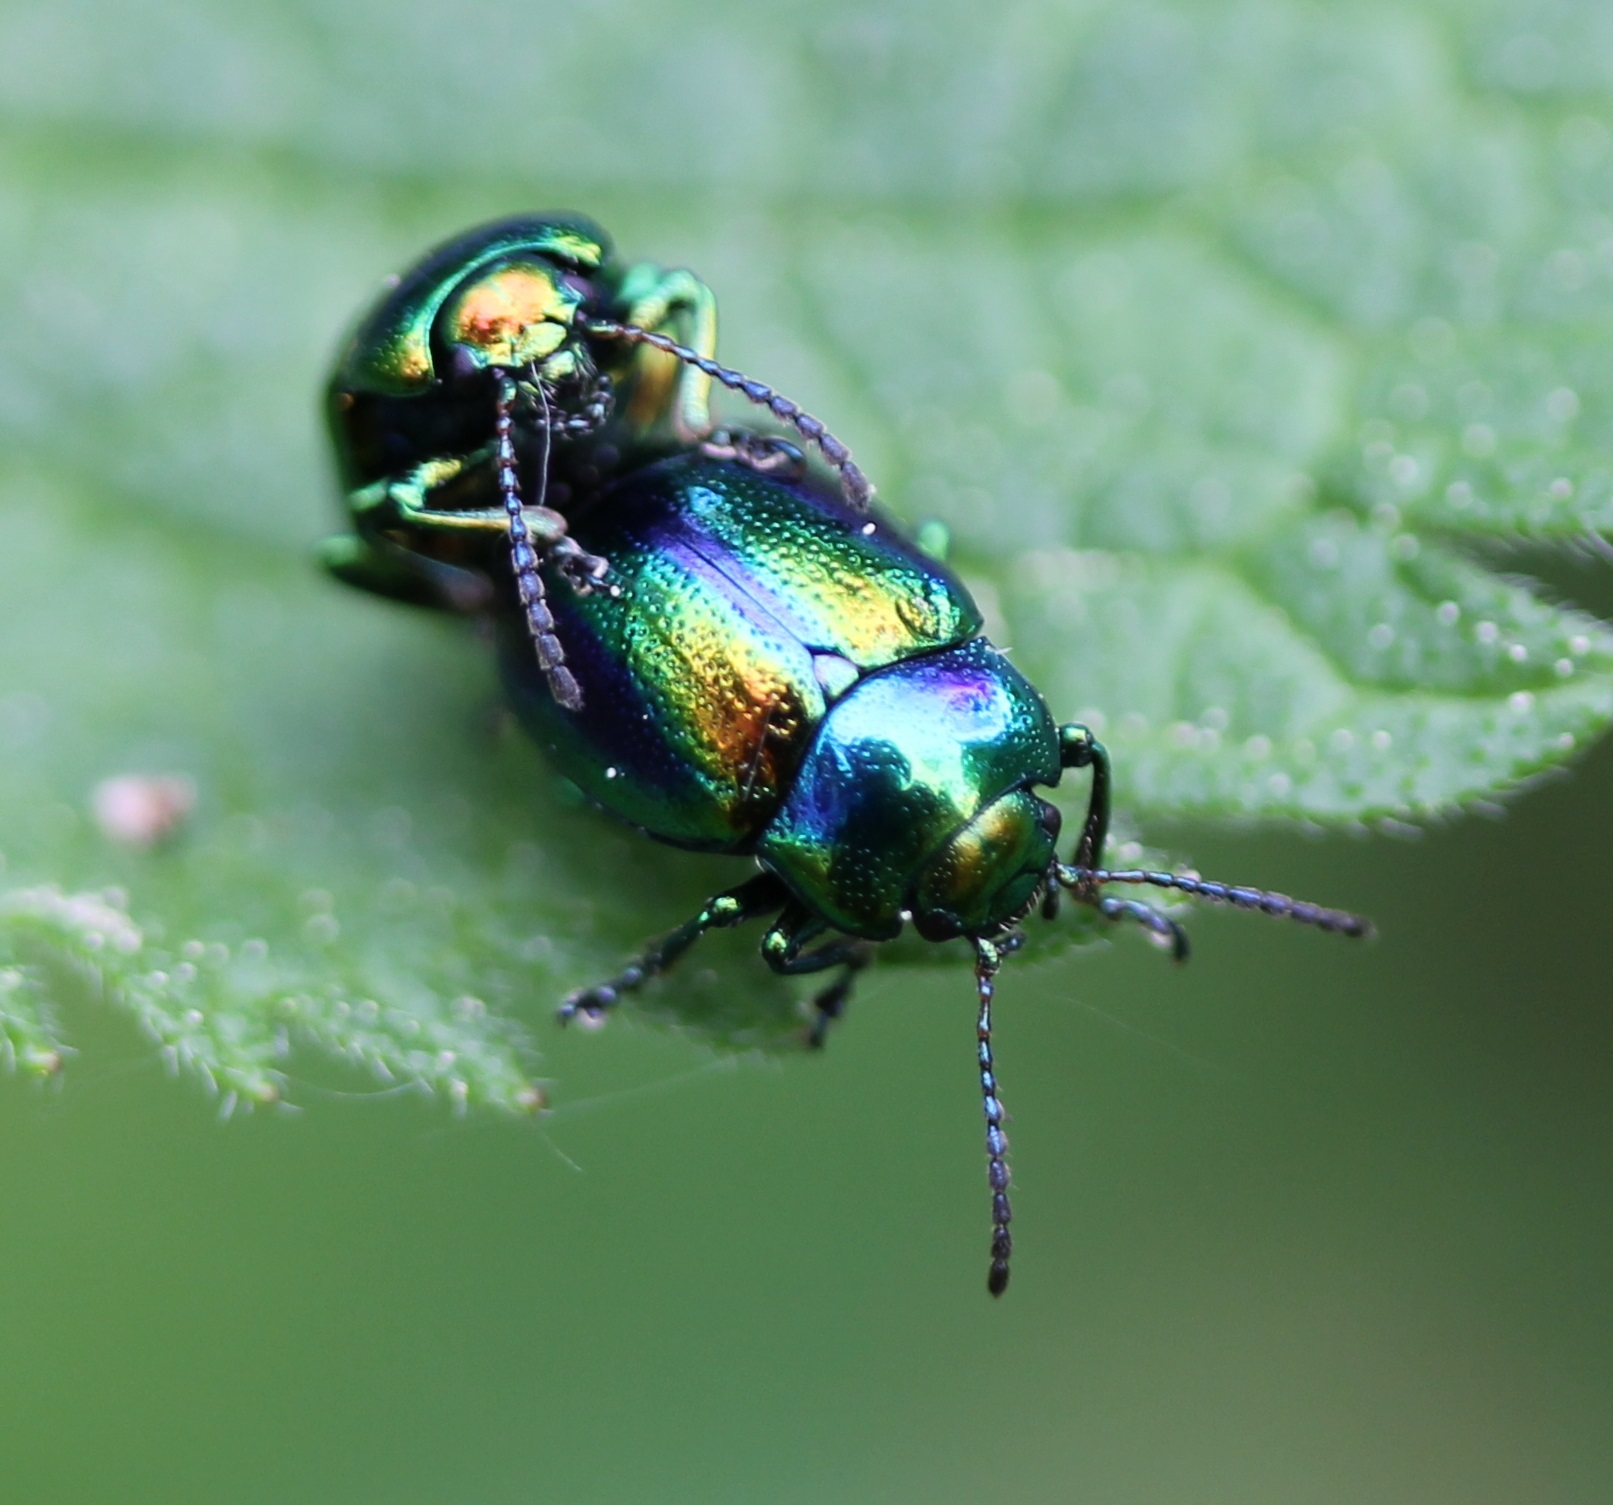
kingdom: Animalia
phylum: Arthropoda
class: Insecta
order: Coleoptera
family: Chrysomelidae
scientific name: Chrysomelidae
